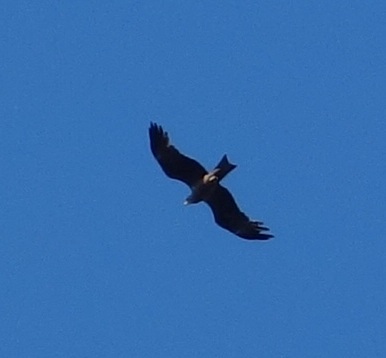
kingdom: Animalia
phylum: Chordata
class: Aves
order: Accipitriformes
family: Accipitridae
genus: Milvus
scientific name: Milvus migrans
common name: Black kite
